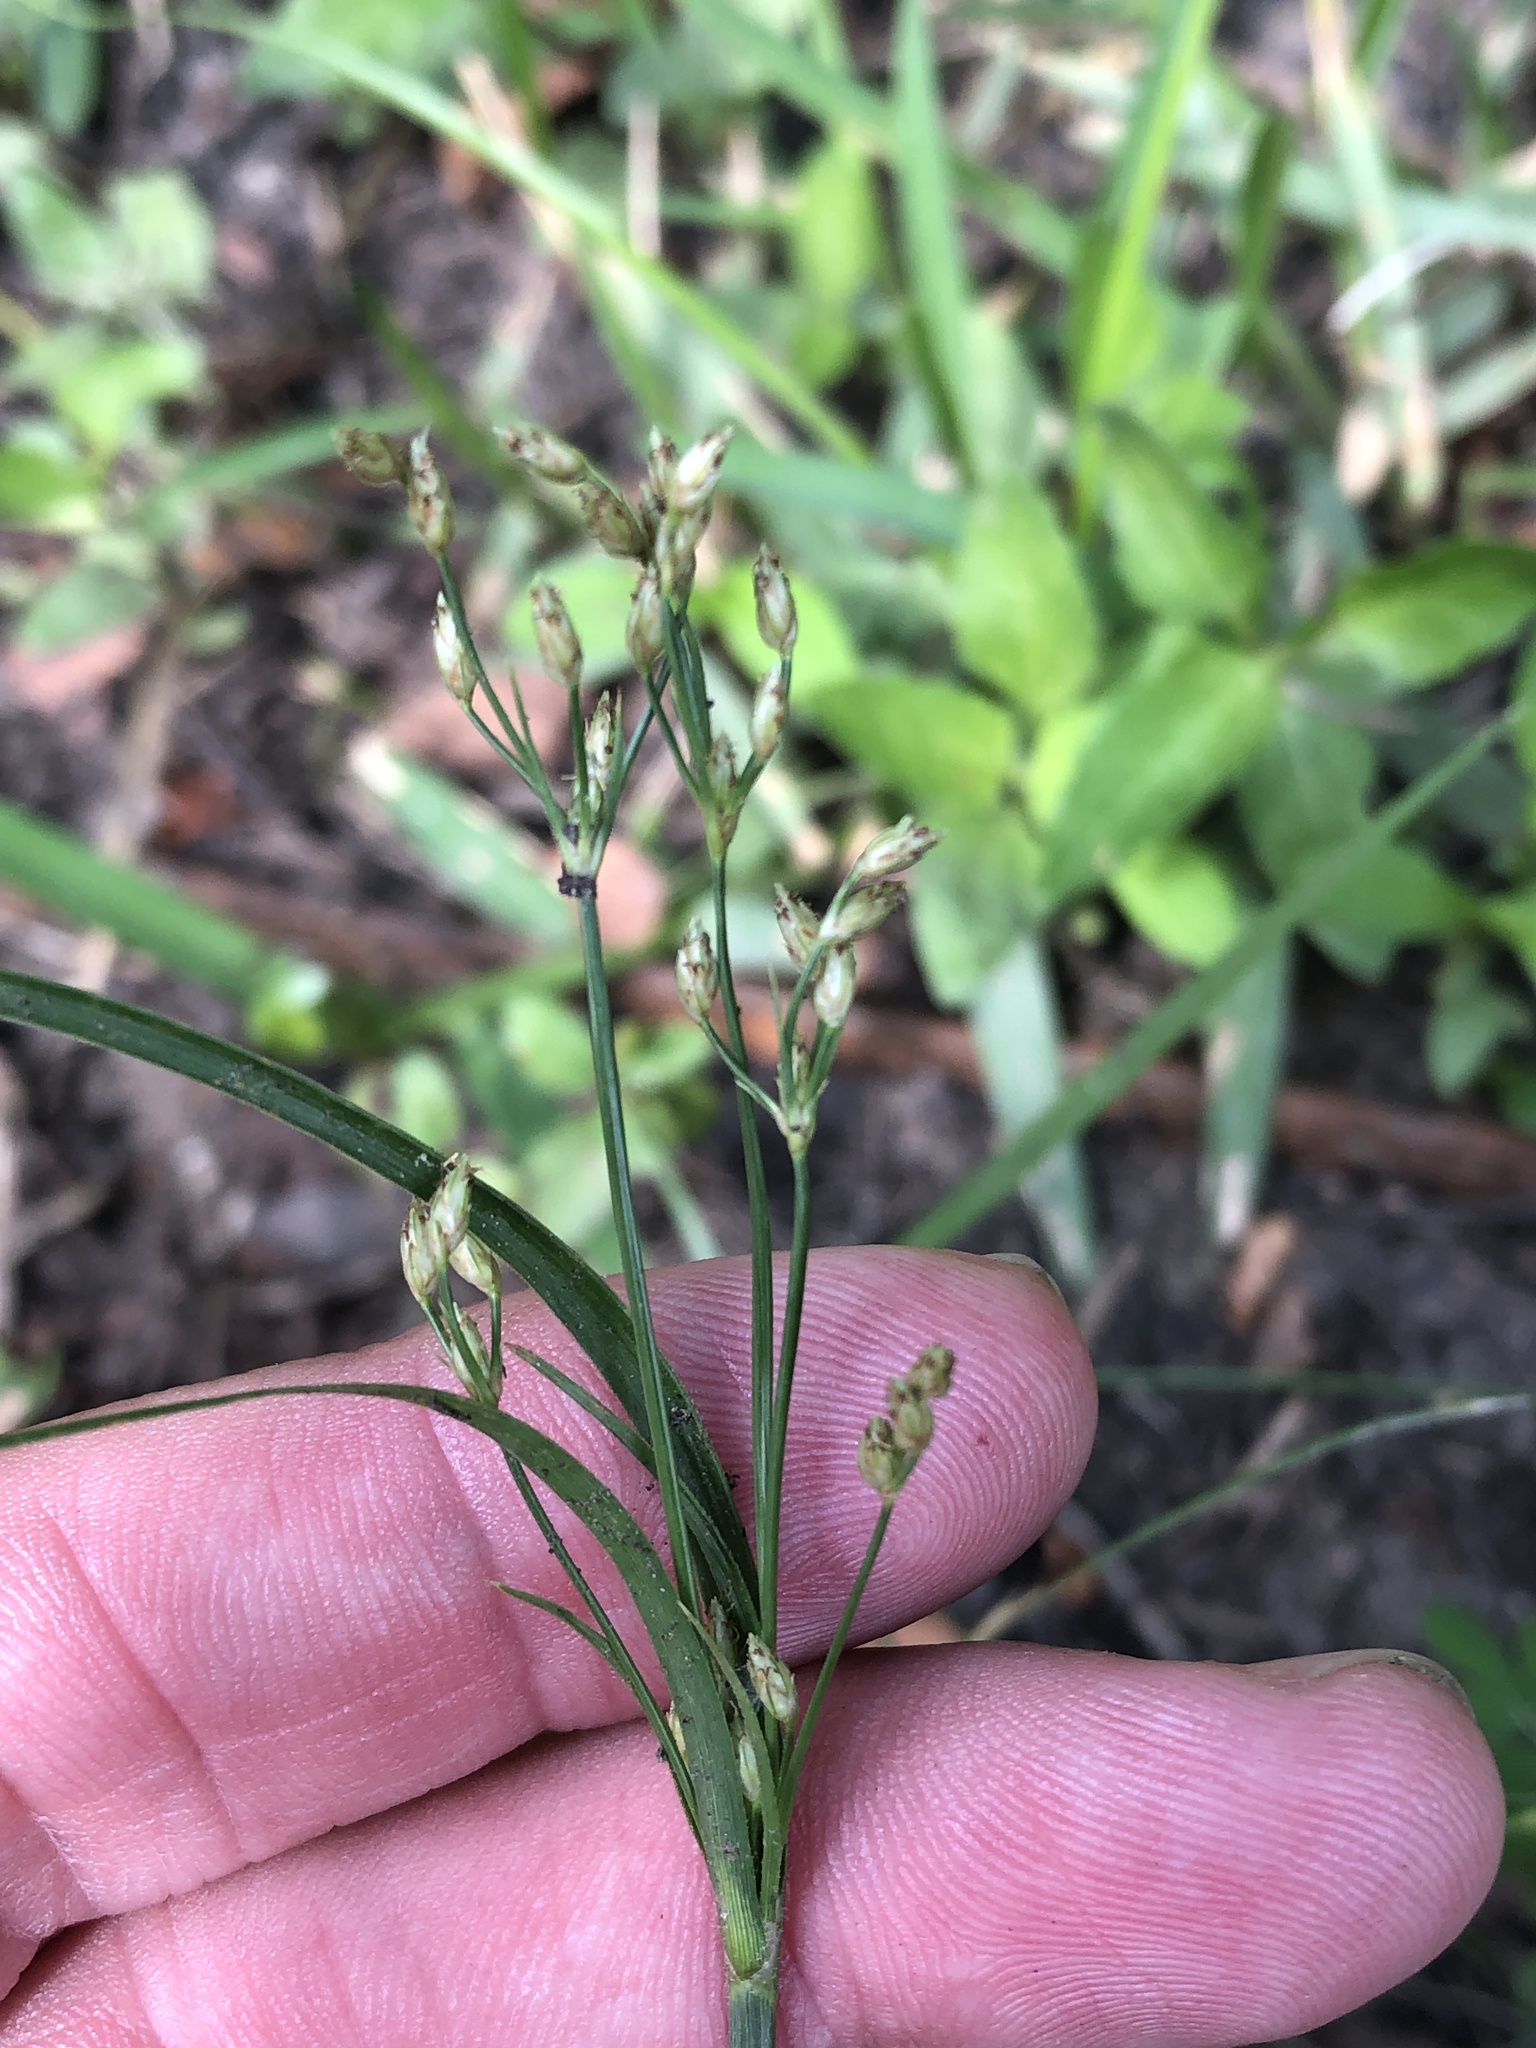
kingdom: Plantae
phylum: Tracheophyta
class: Liliopsida
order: Poales
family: Cyperaceae
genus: Fimbristylis
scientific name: Fimbristylis autumnalis
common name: Slender fimbristylis
